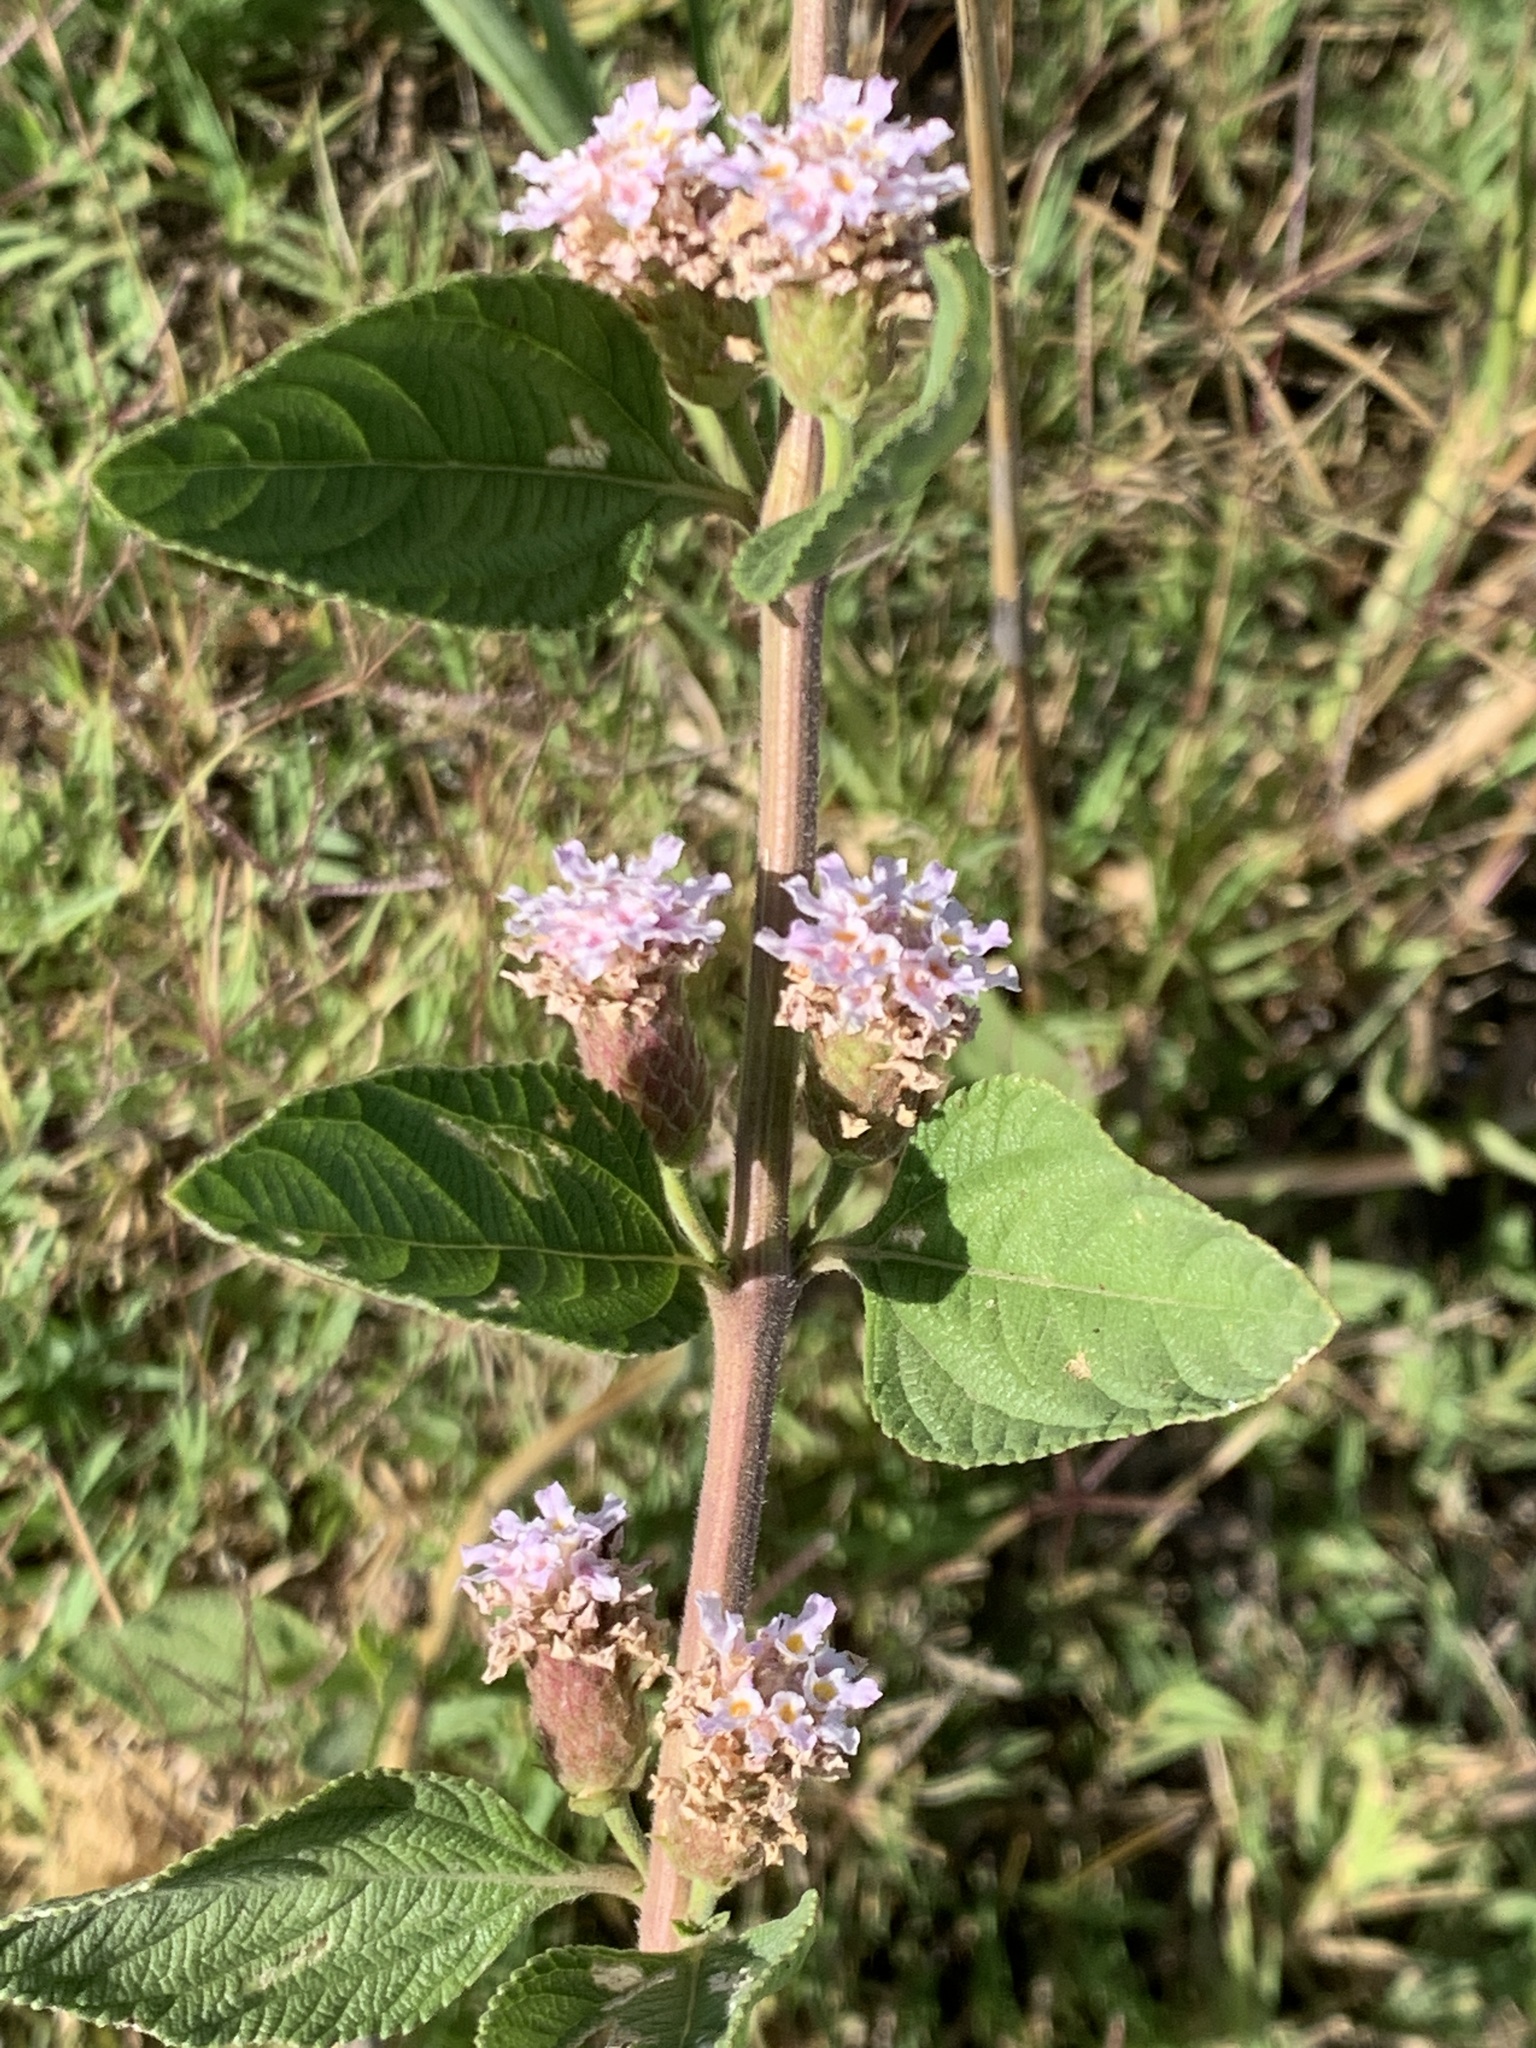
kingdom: Plantae
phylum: Tracheophyta
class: Magnoliopsida
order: Lamiales
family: Verbenaceae
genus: Lippia
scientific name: Lippia alba
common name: Bushy matgrass
